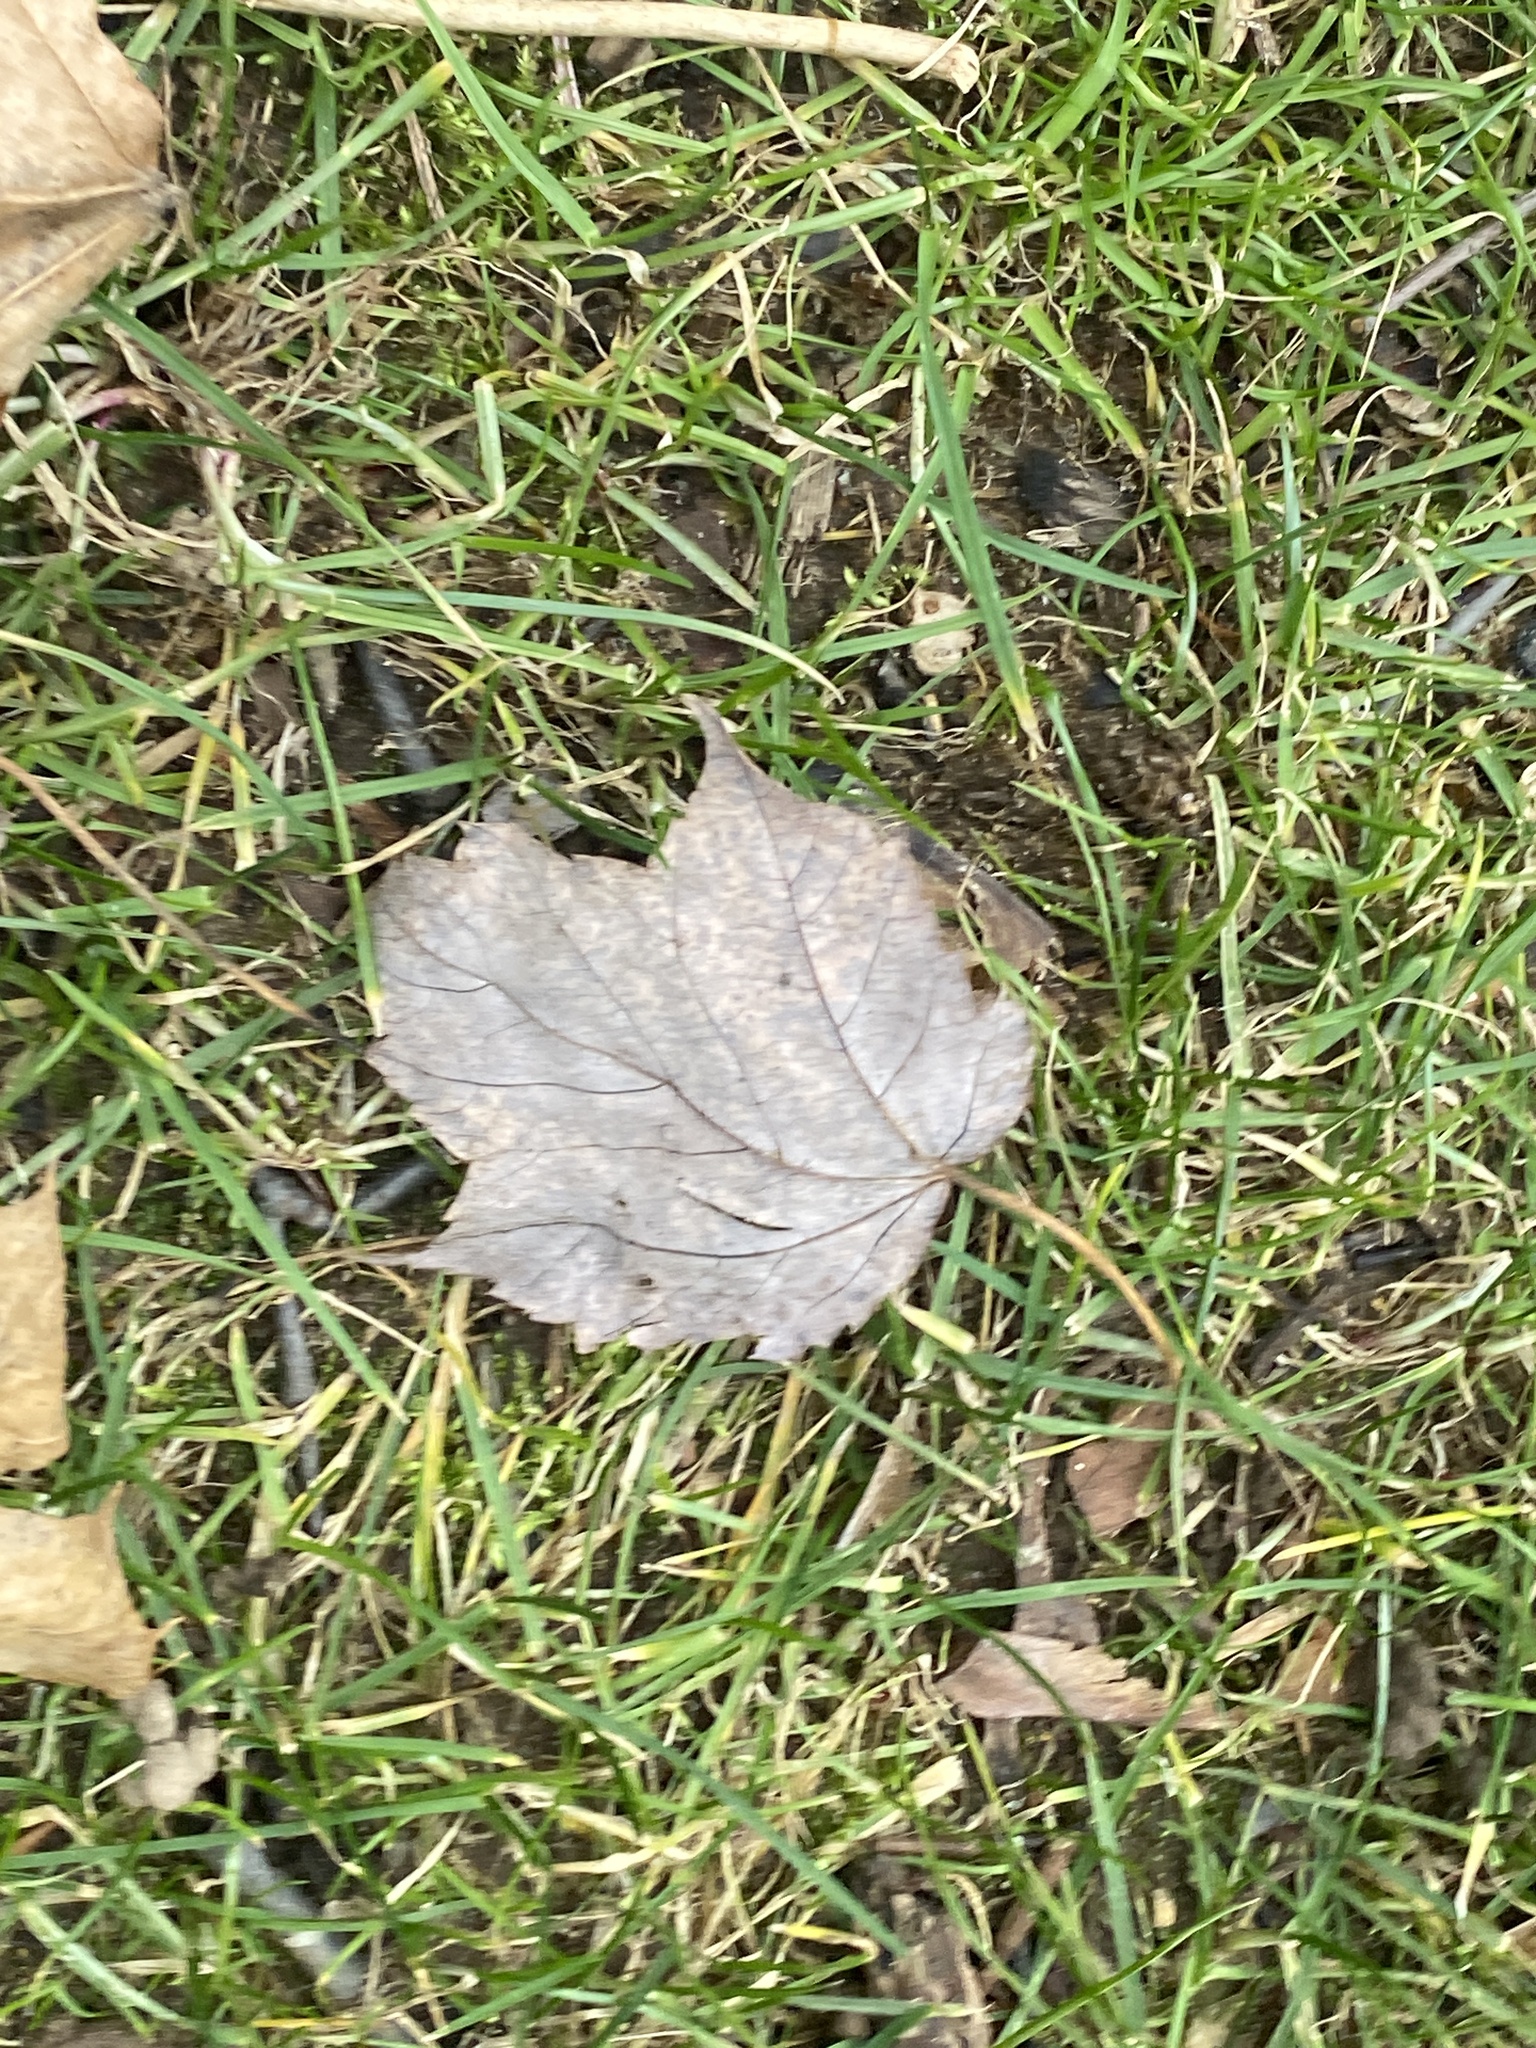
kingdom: Plantae
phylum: Tracheophyta
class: Magnoliopsida
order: Sapindales
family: Sapindaceae
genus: Acer
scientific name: Acer rubrum
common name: Red maple
